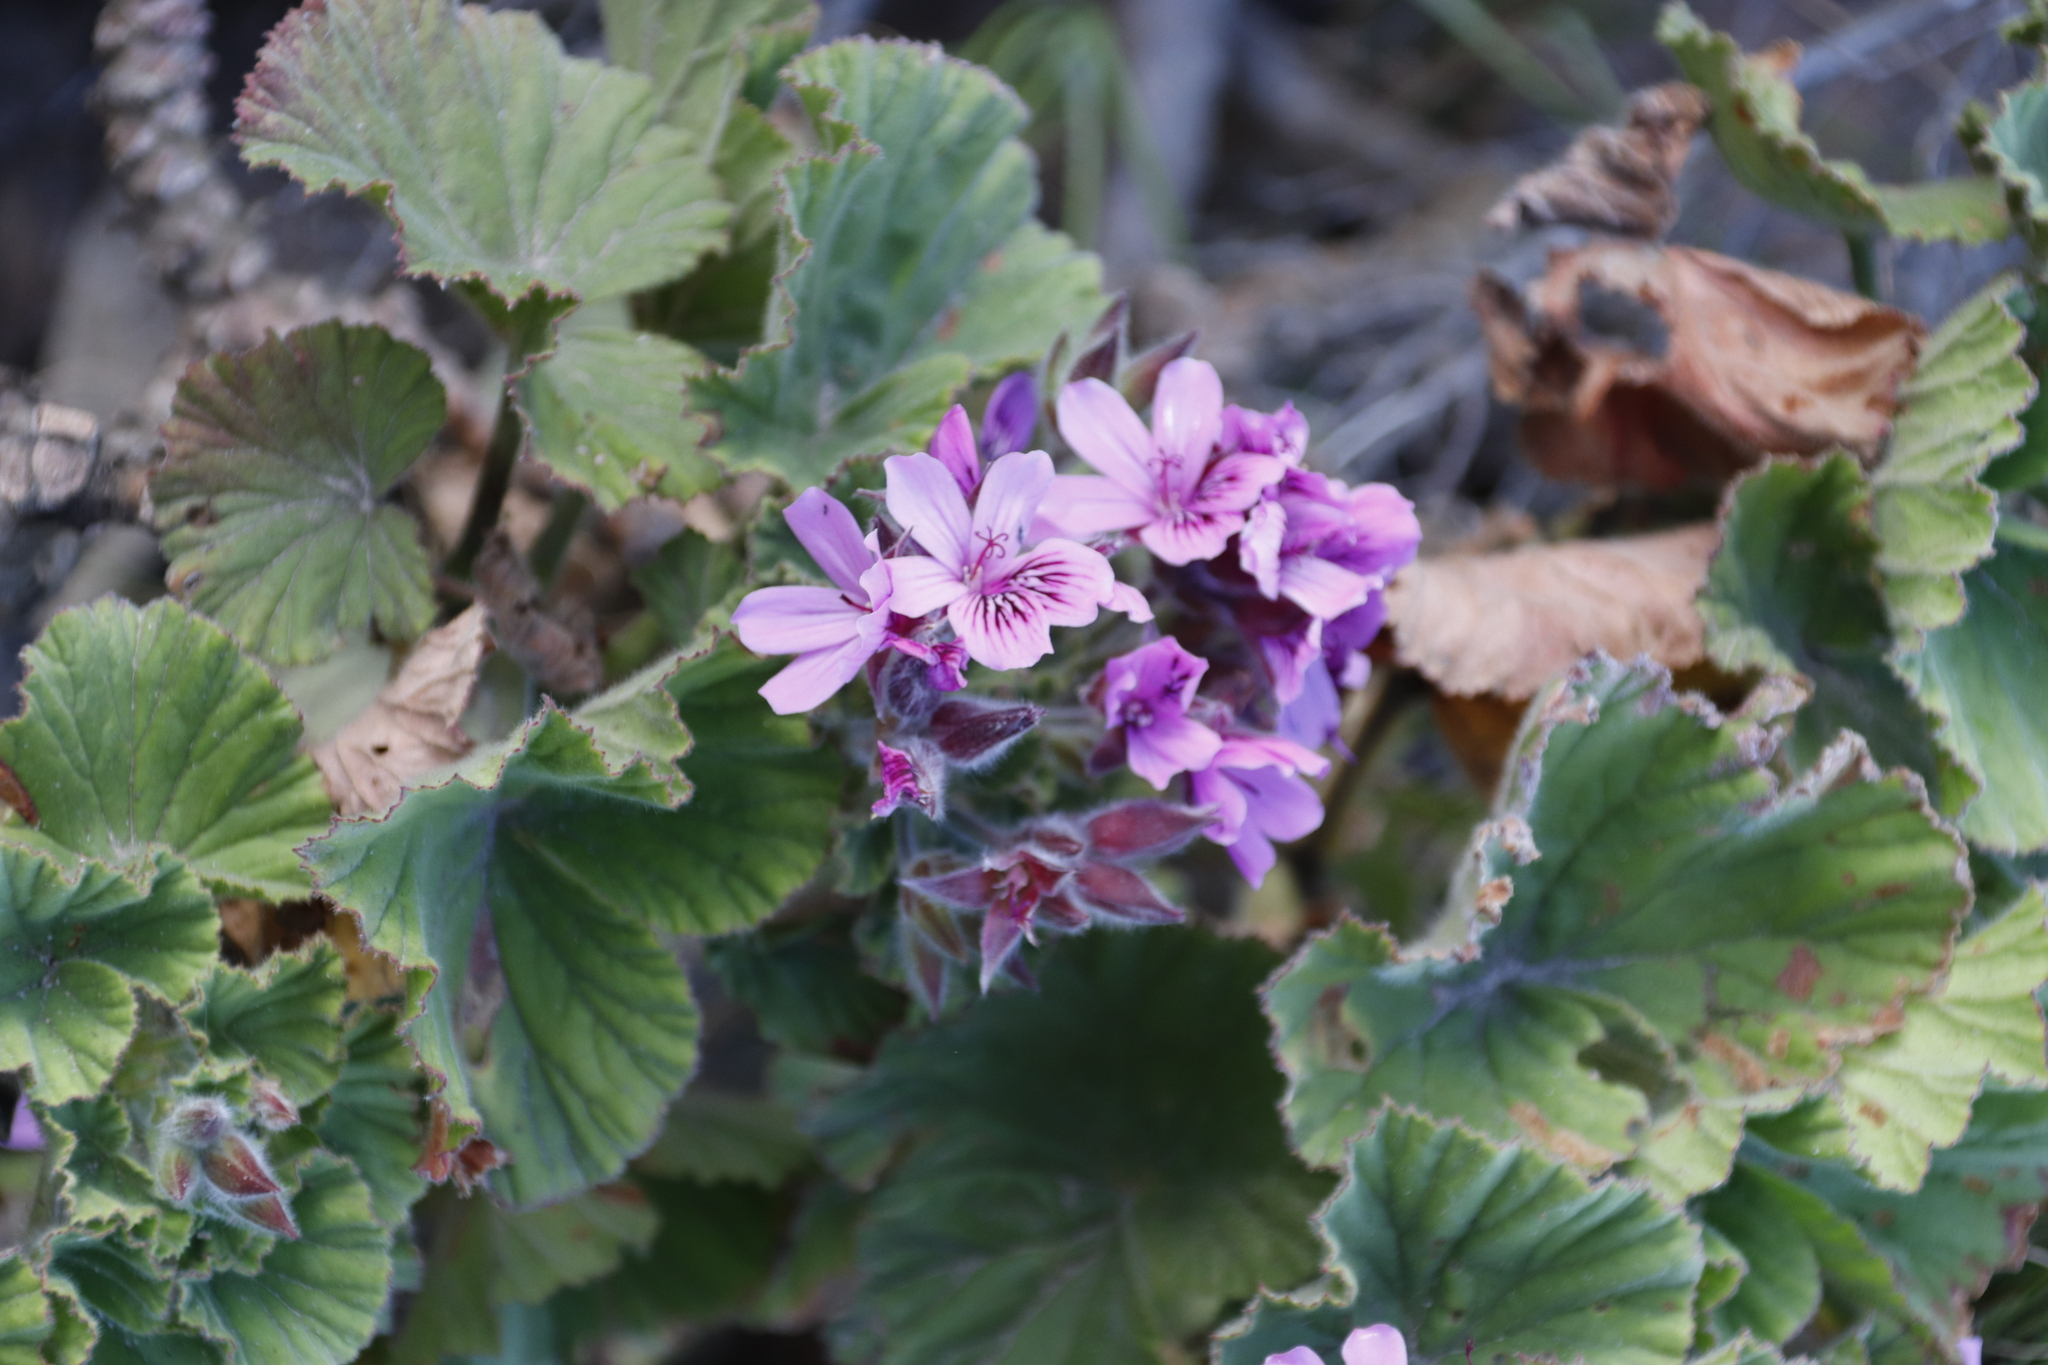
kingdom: Plantae
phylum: Tracheophyta
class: Magnoliopsida
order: Geraniales
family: Geraniaceae
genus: Pelargonium
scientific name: Pelargonium cucullatum
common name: Tree pelargonium
